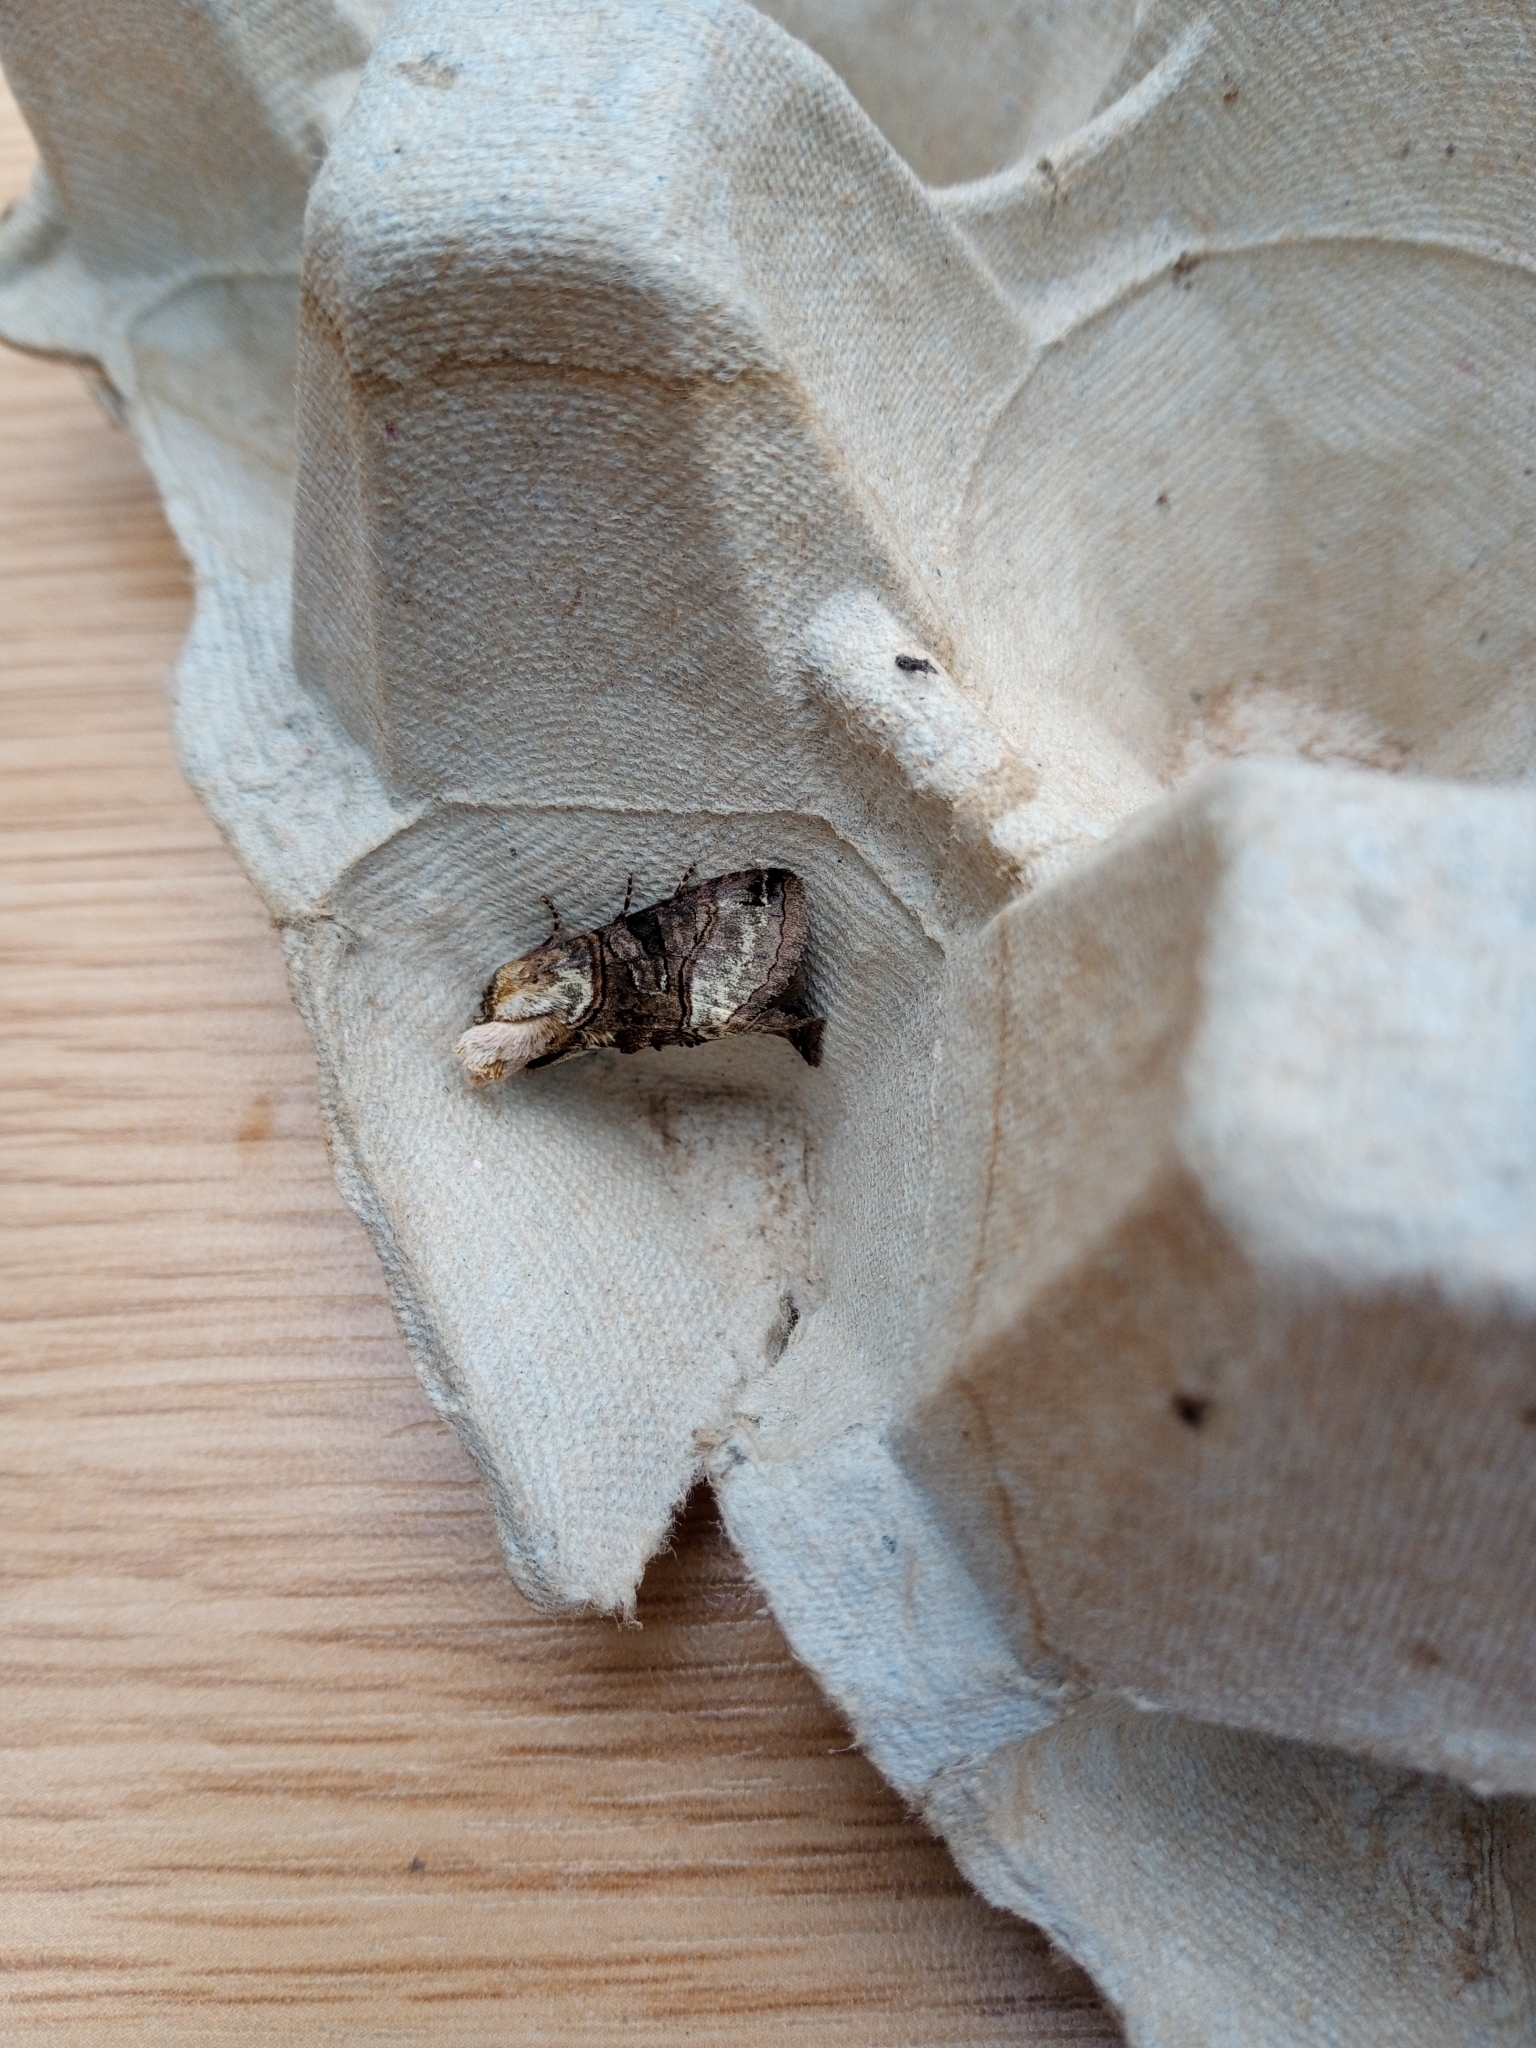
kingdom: Animalia
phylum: Arthropoda
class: Insecta
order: Lepidoptera
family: Noctuidae
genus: Abrostola
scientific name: Abrostola tripartita
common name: Spectacle
